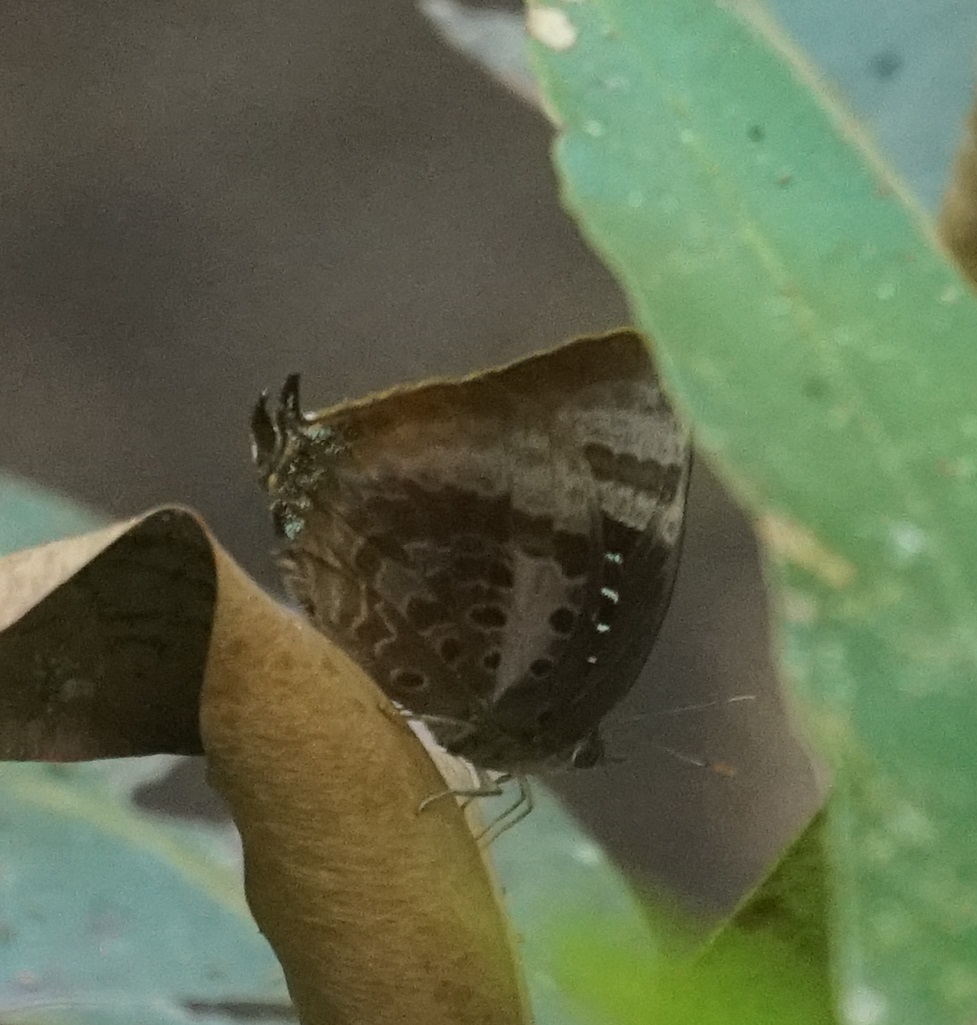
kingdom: Animalia
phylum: Arthropoda
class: Insecta
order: Lepidoptera
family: Lycaenidae
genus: Arhopala
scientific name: Arhopala micale
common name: Shining oak-blue
